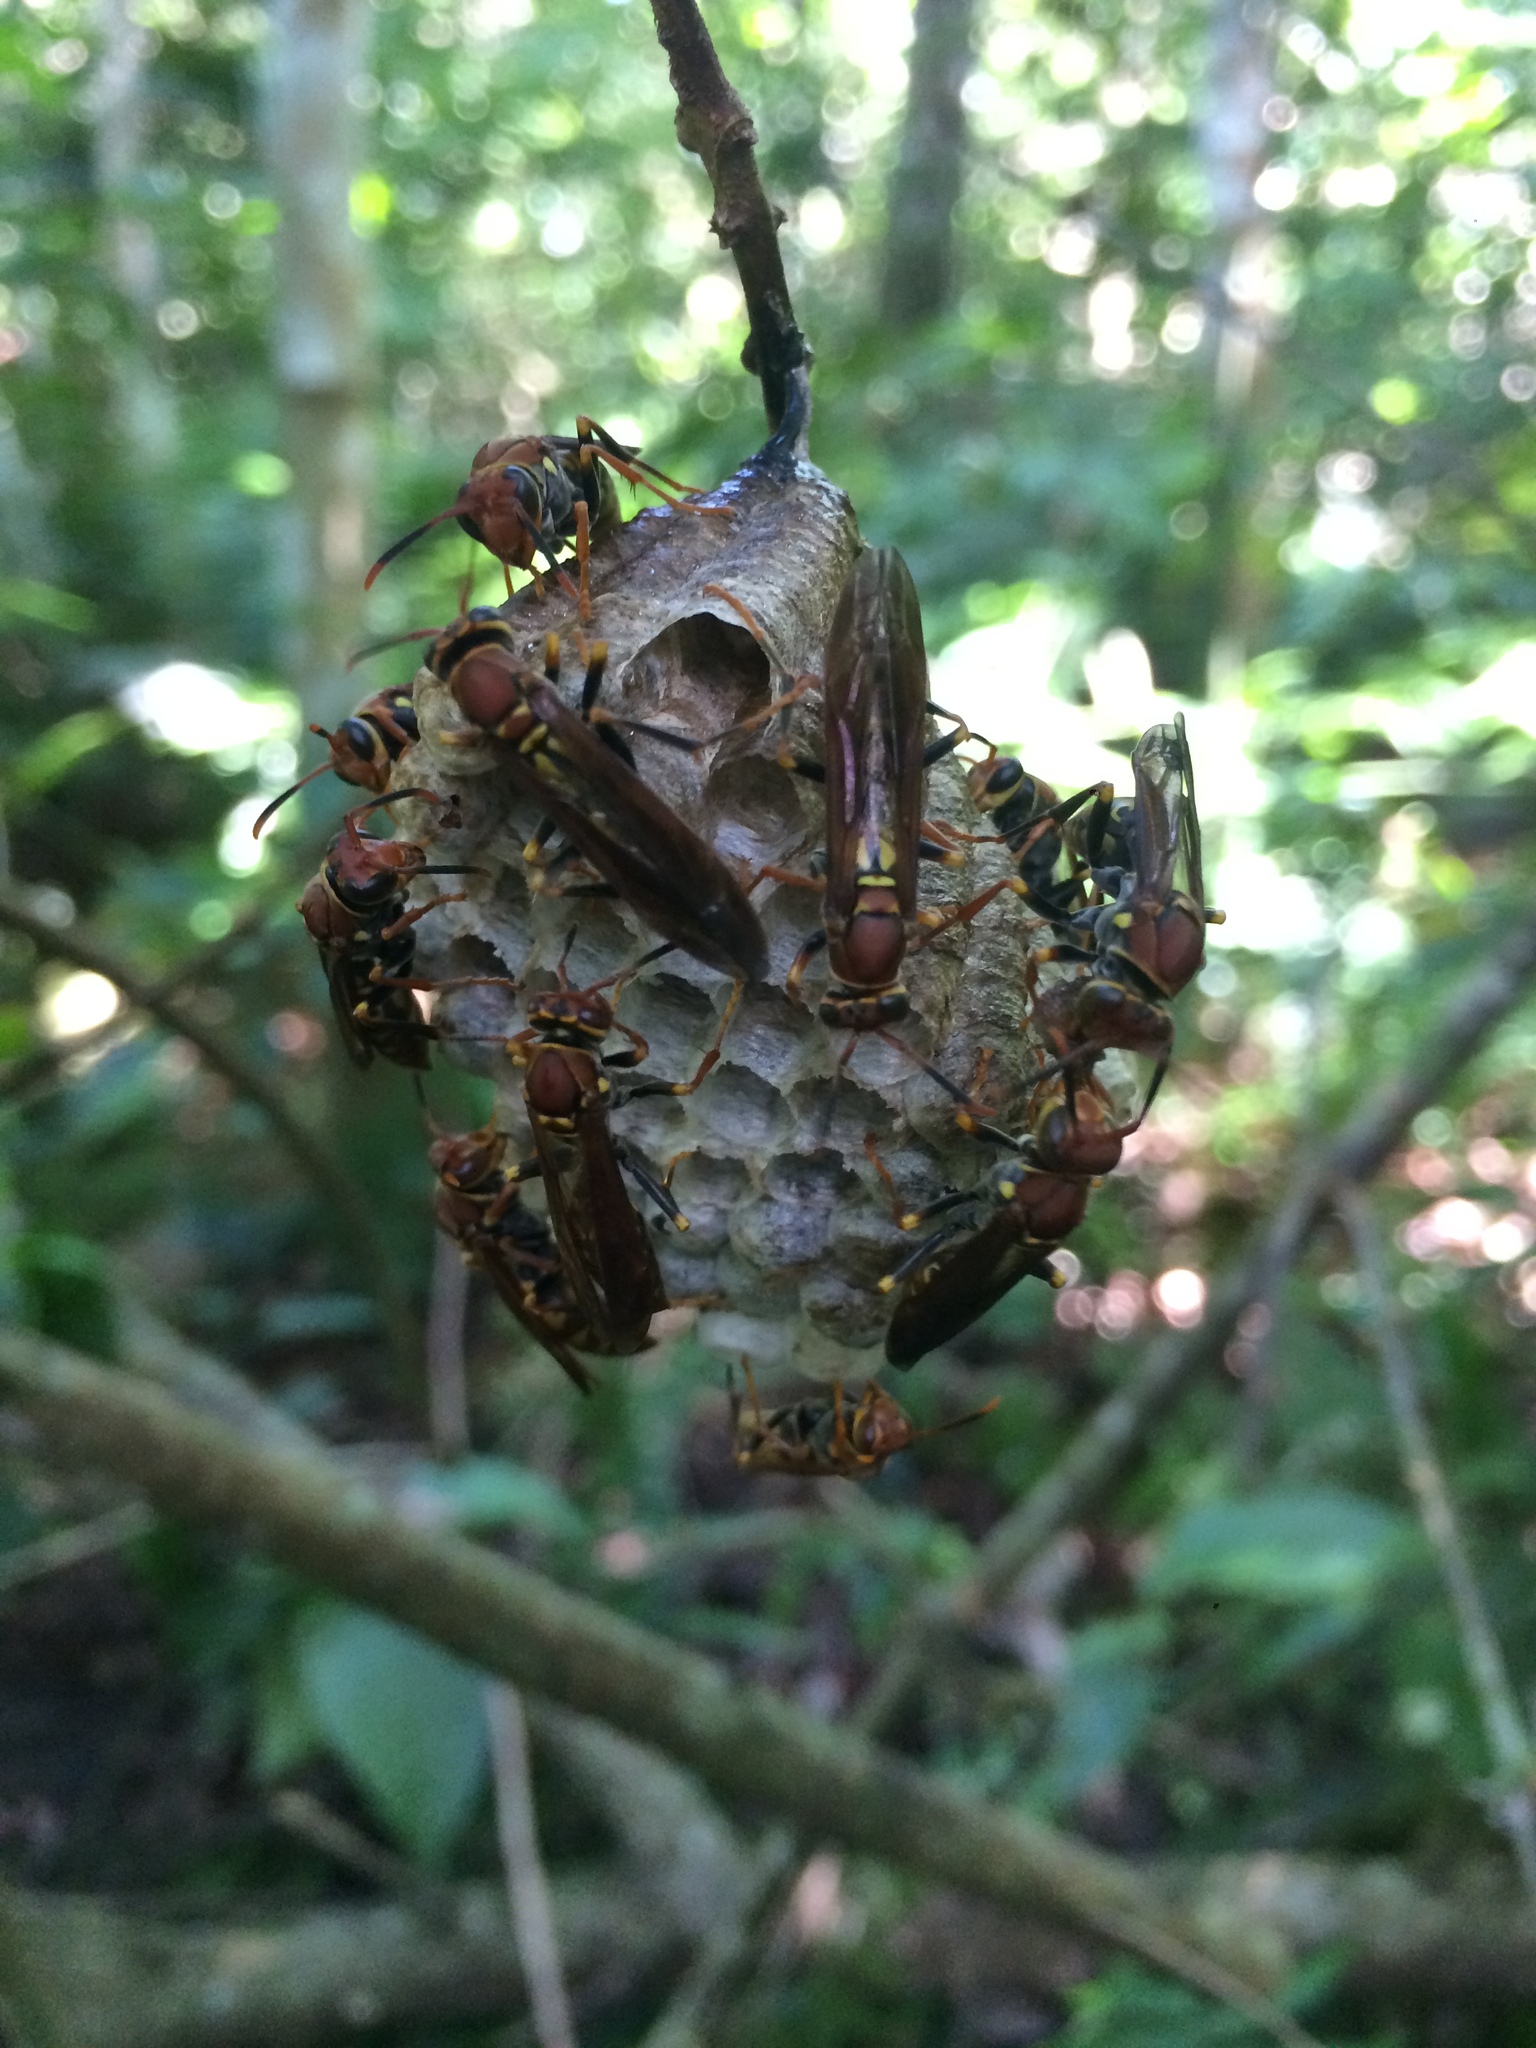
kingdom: Animalia
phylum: Arthropoda
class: Insecta
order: Hymenoptera
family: Eumenidae
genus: Polistes
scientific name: Polistes versicolor
